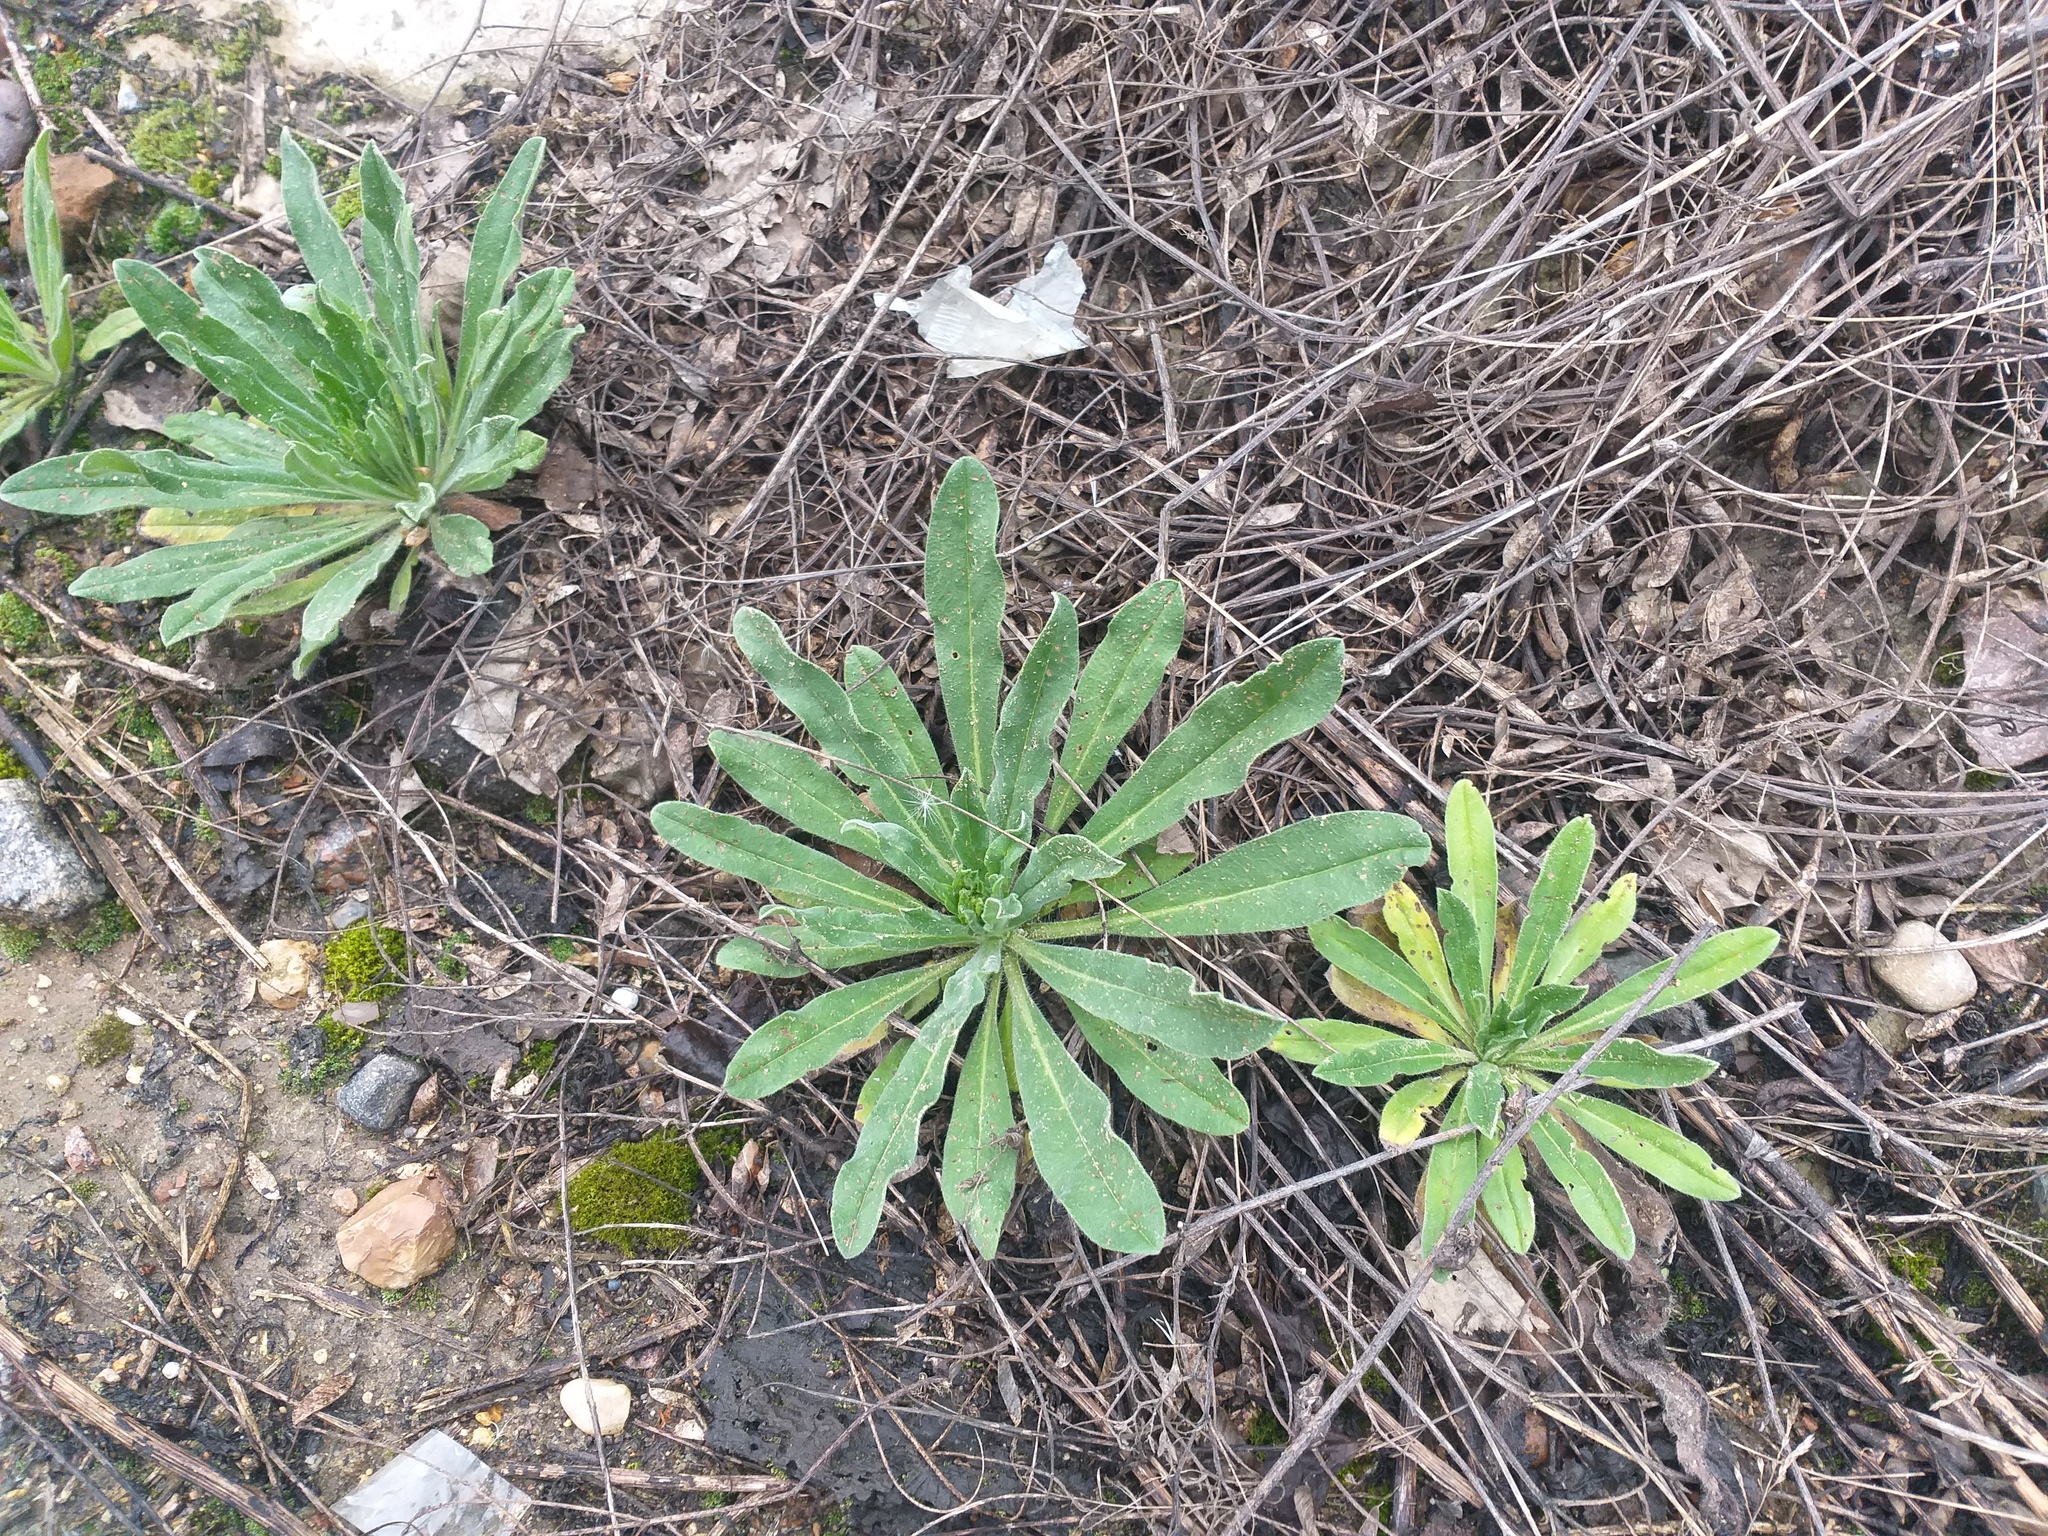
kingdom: Plantae
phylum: Tracheophyta
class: Magnoliopsida
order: Boraginales
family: Boraginaceae
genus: Echium
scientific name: Echium vulgare
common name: Common viper's bugloss
